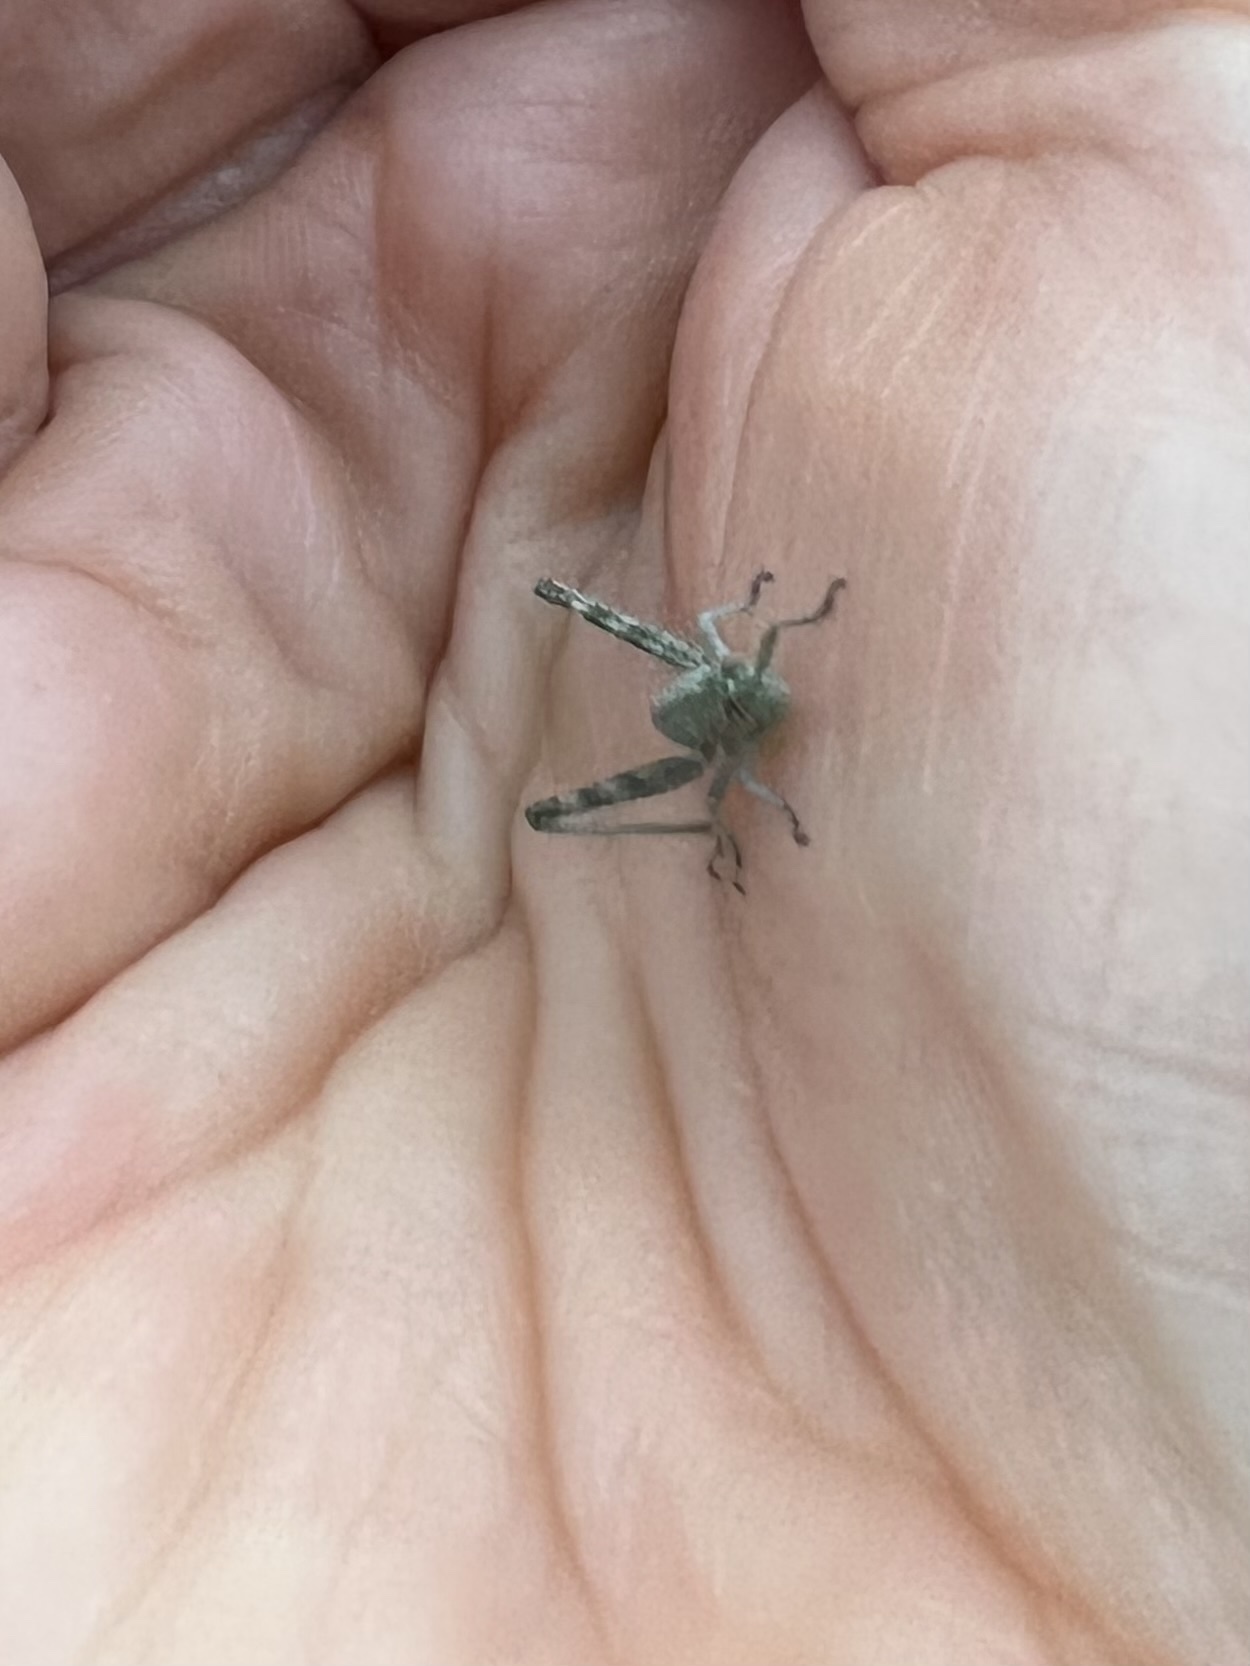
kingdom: Animalia
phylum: Arthropoda
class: Insecta
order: Orthoptera
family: Acrididae
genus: Schistocerca
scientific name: Schistocerca nitens
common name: Vagrant grasshopper
